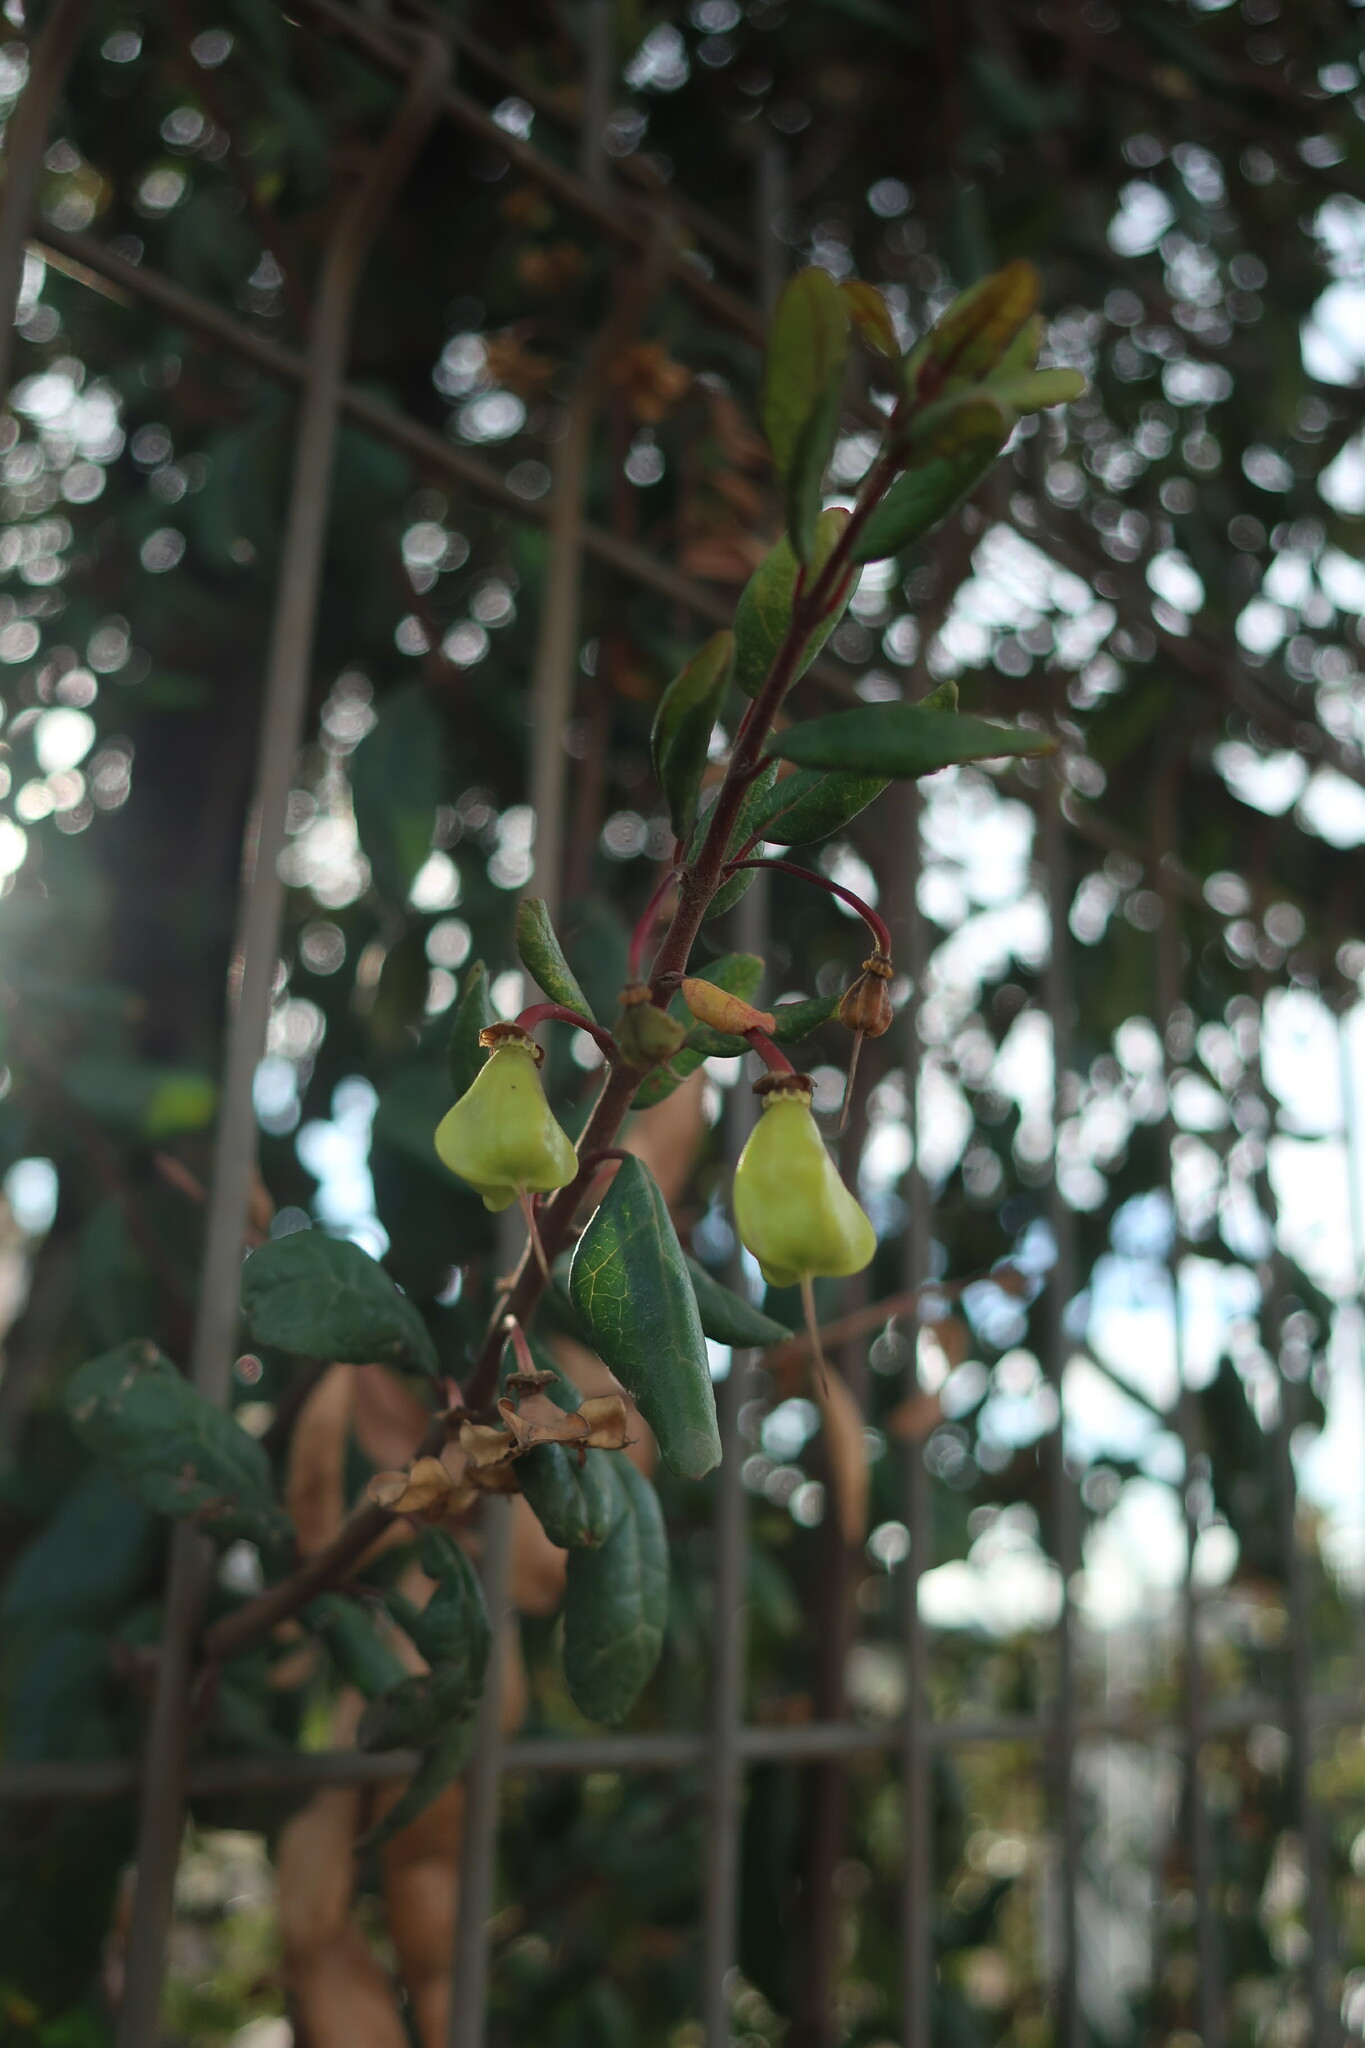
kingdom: Plantae
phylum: Tracheophyta
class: Magnoliopsida
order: Oxalidales
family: Elaeocarpaceae
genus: Crinodendron
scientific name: Crinodendron patagua
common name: Lily-of-the-valley-tree
